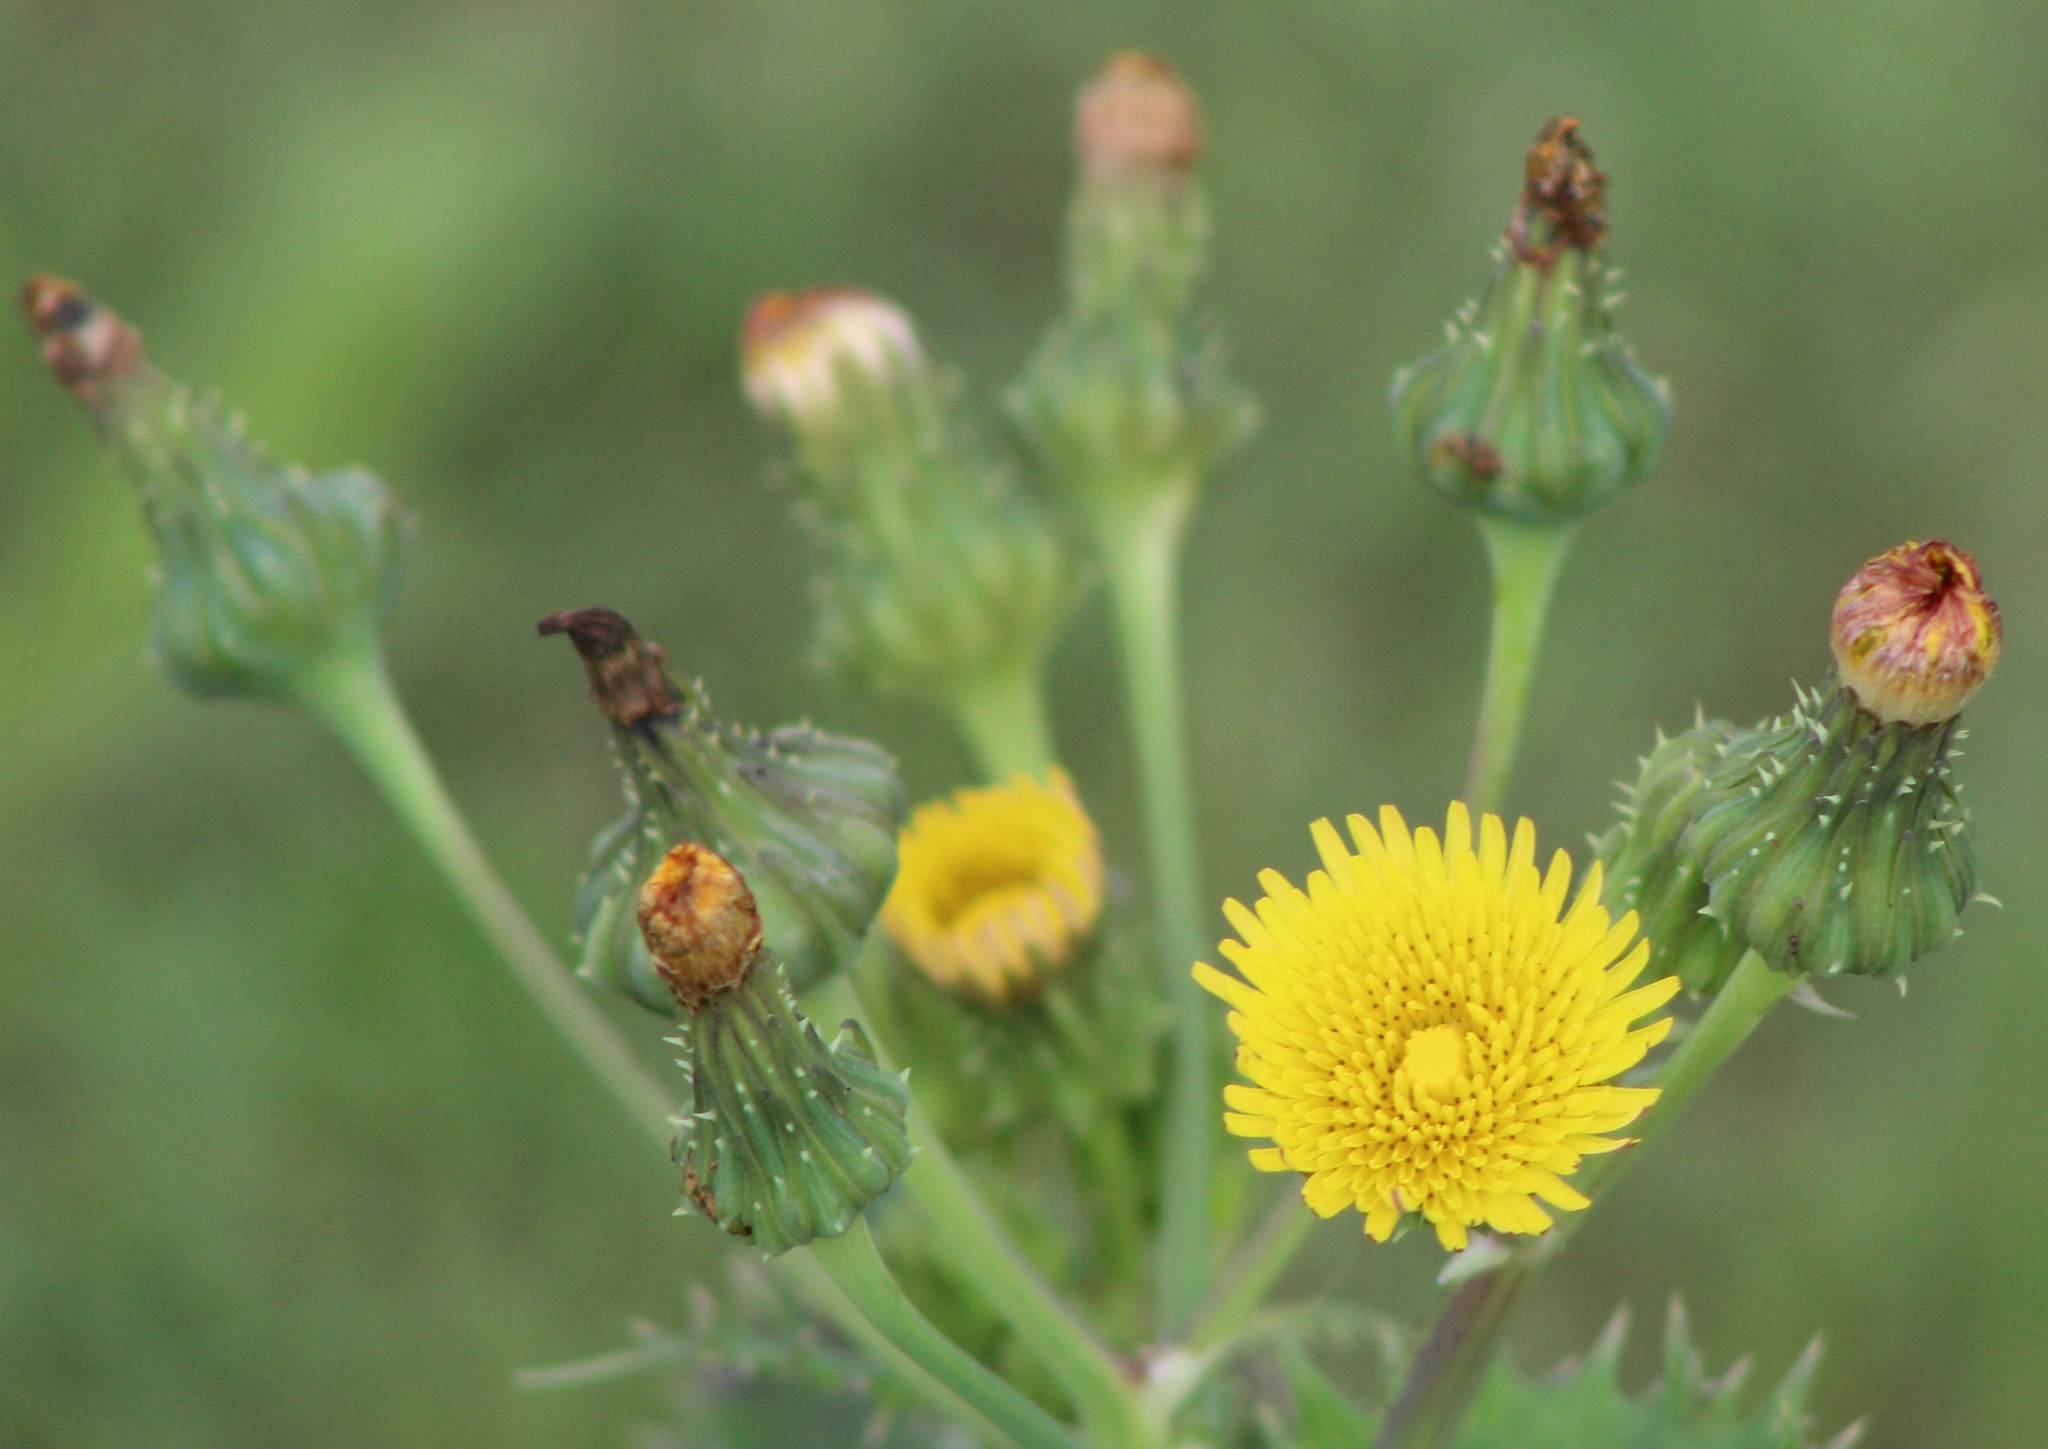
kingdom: Plantae
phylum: Tracheophyta
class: Magnoliopsida
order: Asterales
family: Asteraceae
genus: Sonchus
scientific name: Sonchus asper
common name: Prickly sow-thistle
